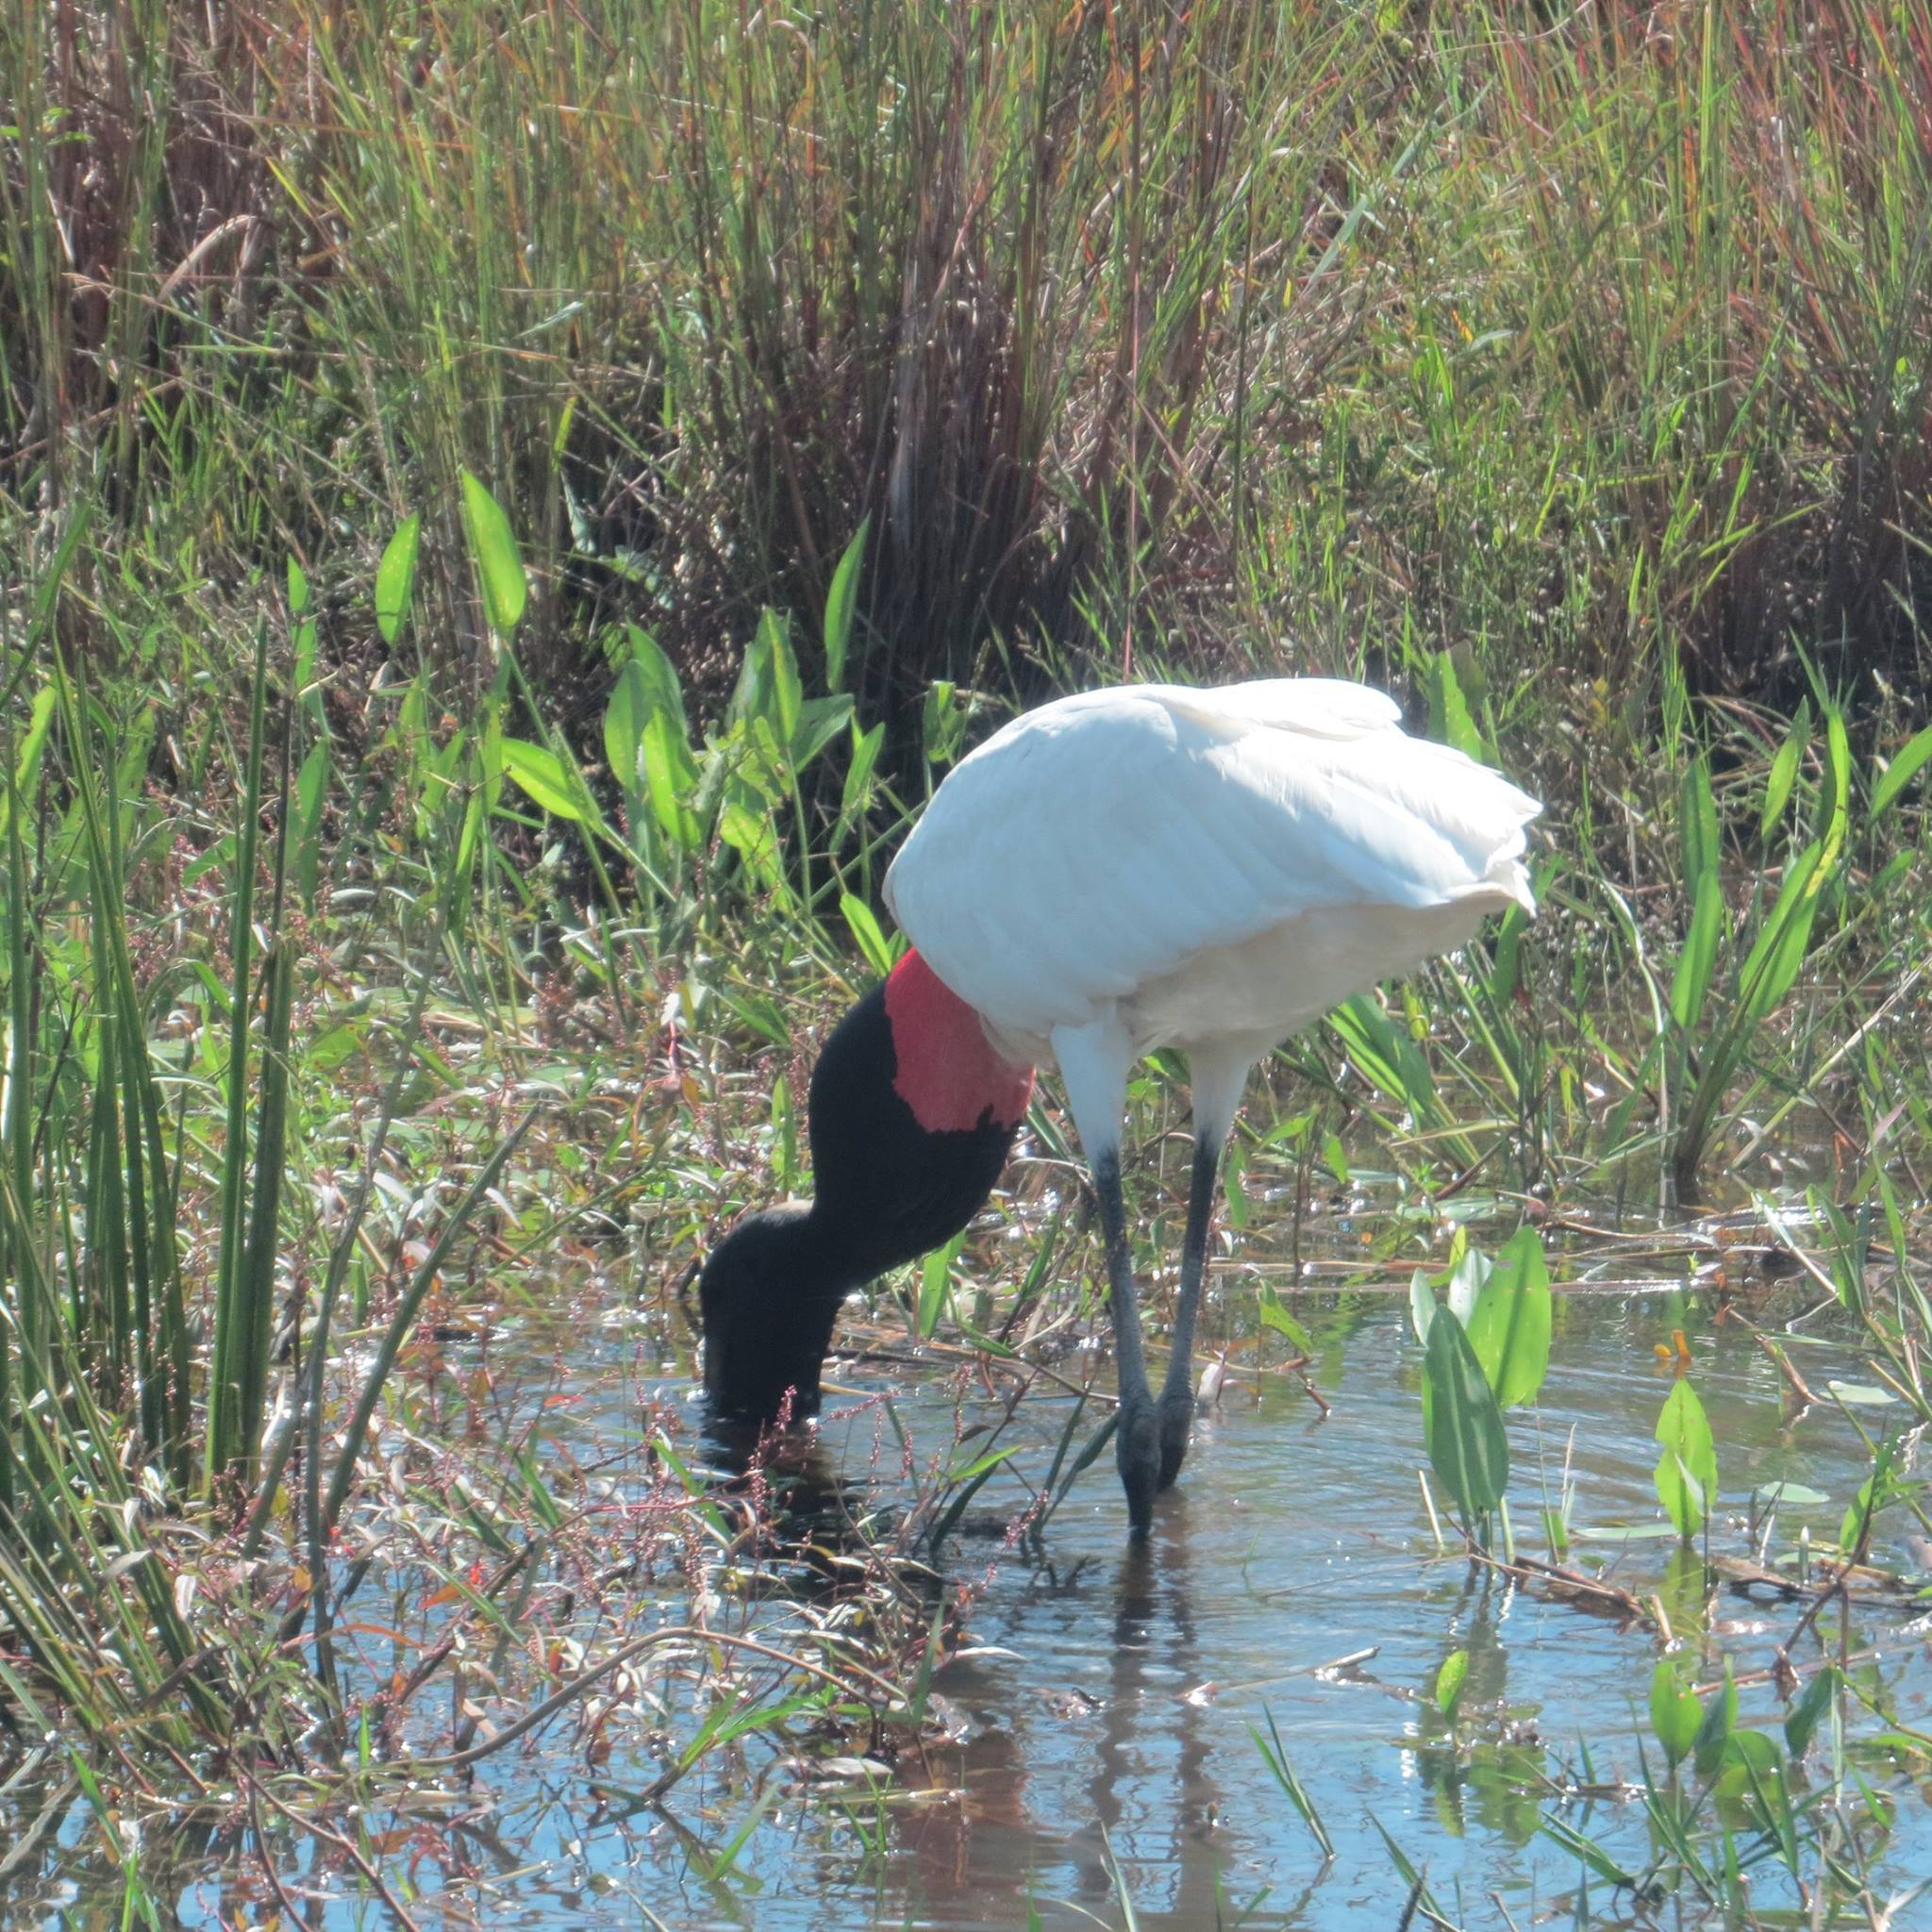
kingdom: Animalia
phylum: Chordata
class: Aves
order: Ciconiiformes
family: Ciconiidae
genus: Jabiru
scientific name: Jabiru mycteria
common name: Jabiru
